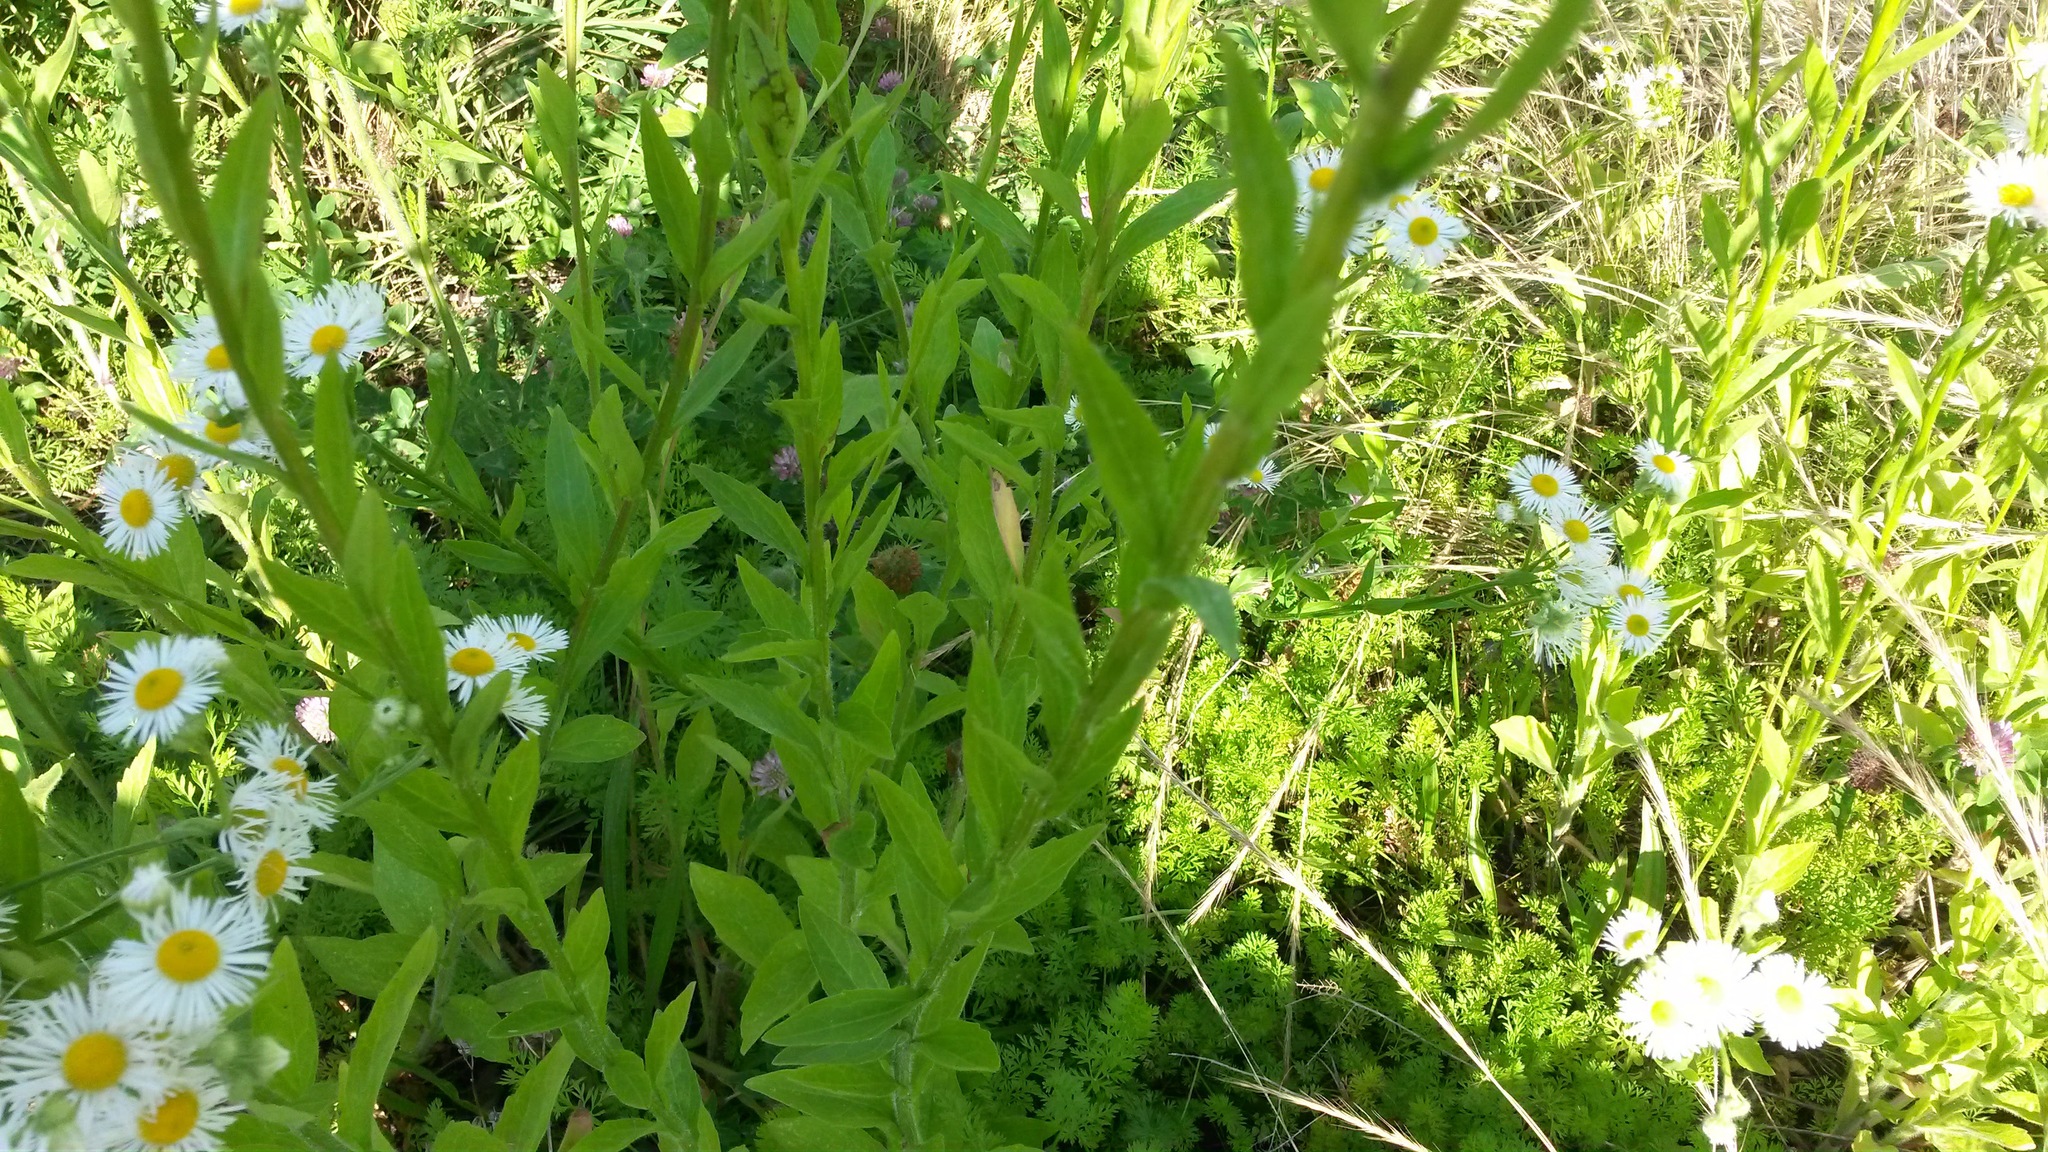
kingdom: Plantae
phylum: Tracheophyta
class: Magnoliopsida
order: Asterales
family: Asteraceae
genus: Erigeron
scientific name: Erigeron annuus
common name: Tall fleabane
